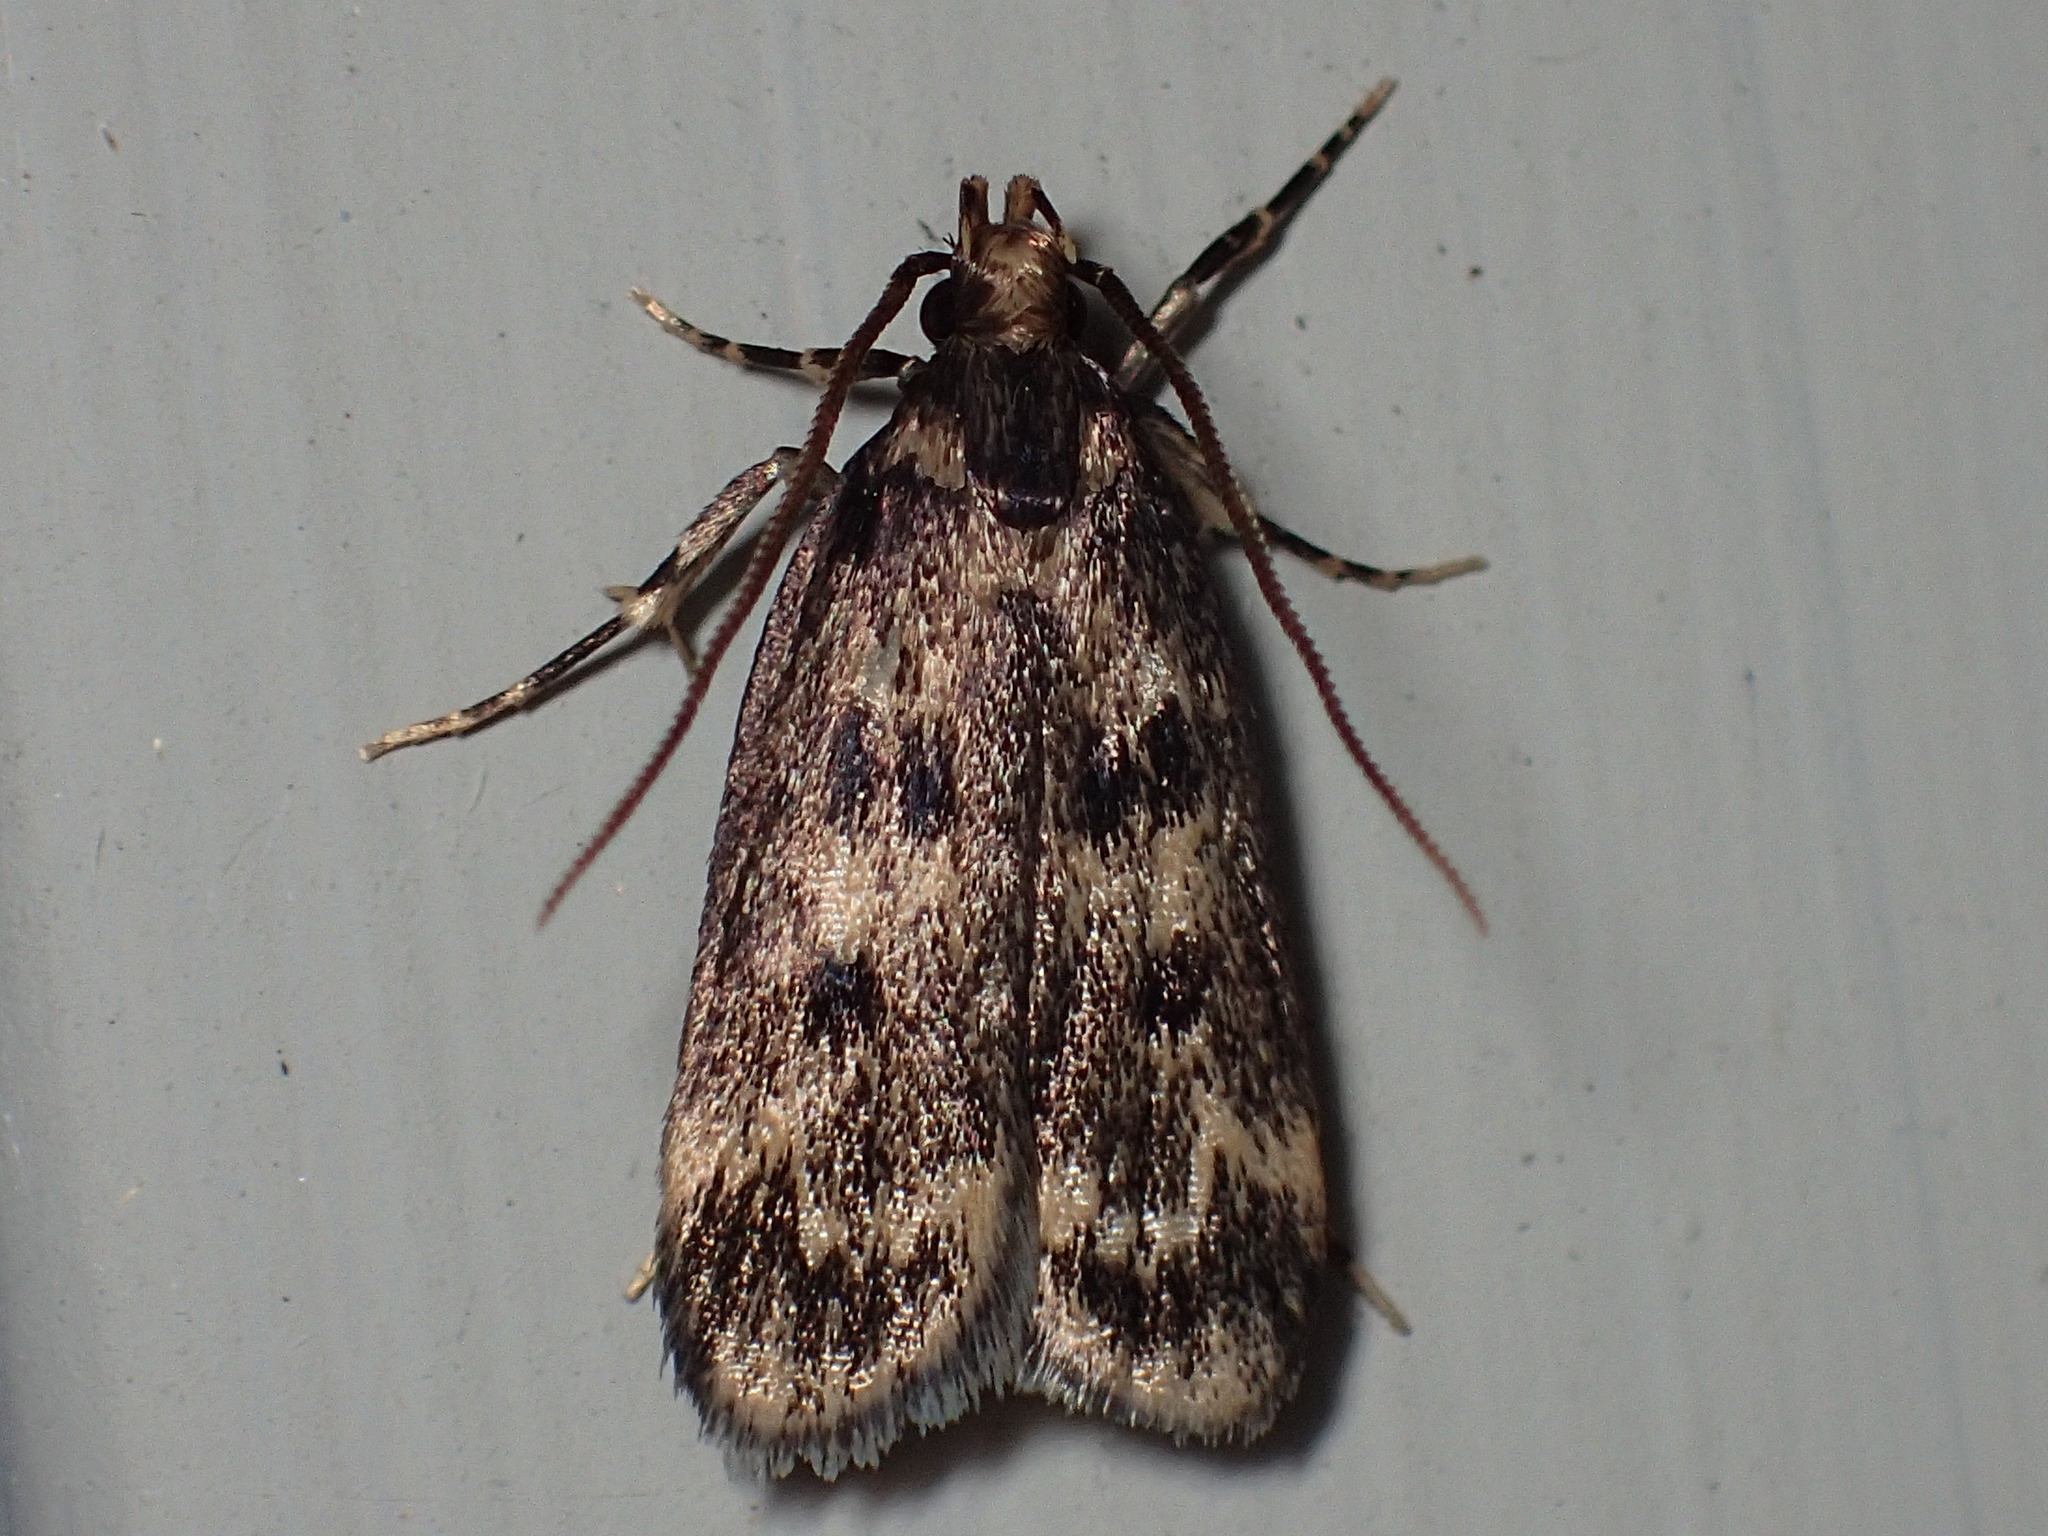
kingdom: Animalia
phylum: Arthropoda
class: Insecta
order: Lepidoptera
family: Lecithoceridae
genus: Martyringa
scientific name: Martyringa latipennis
